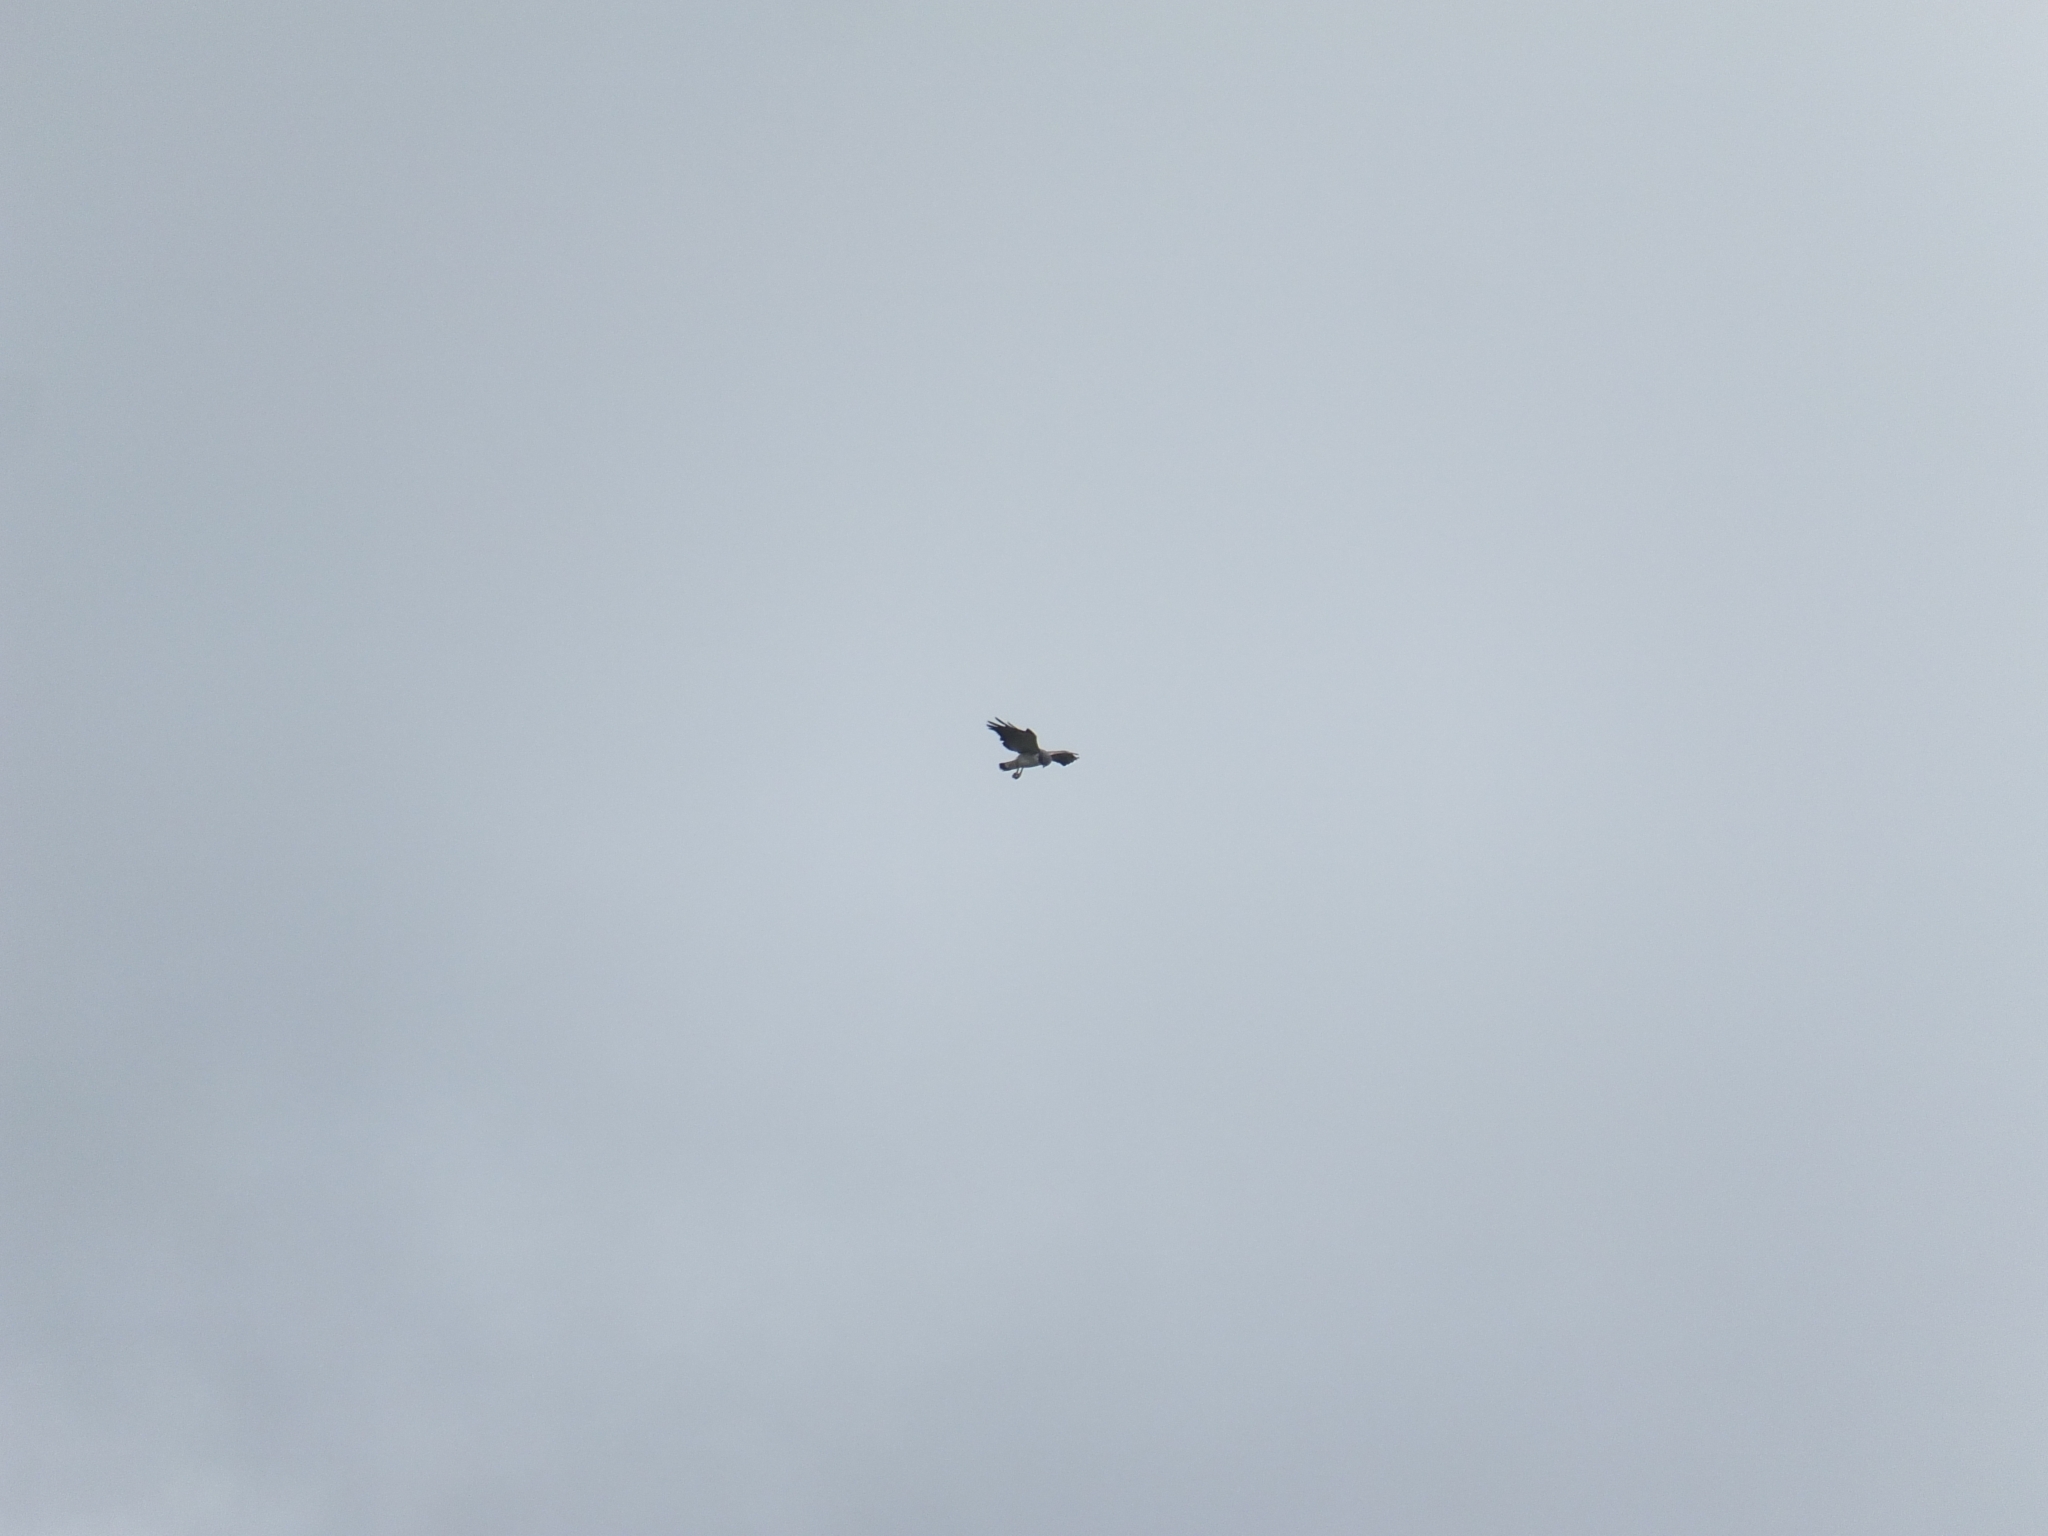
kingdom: Animalia
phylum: Chordata
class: Aves
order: Accipitriformes
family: Accipitridae
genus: Buteo
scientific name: Buteo albicaudatus
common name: White-tailed hawk
